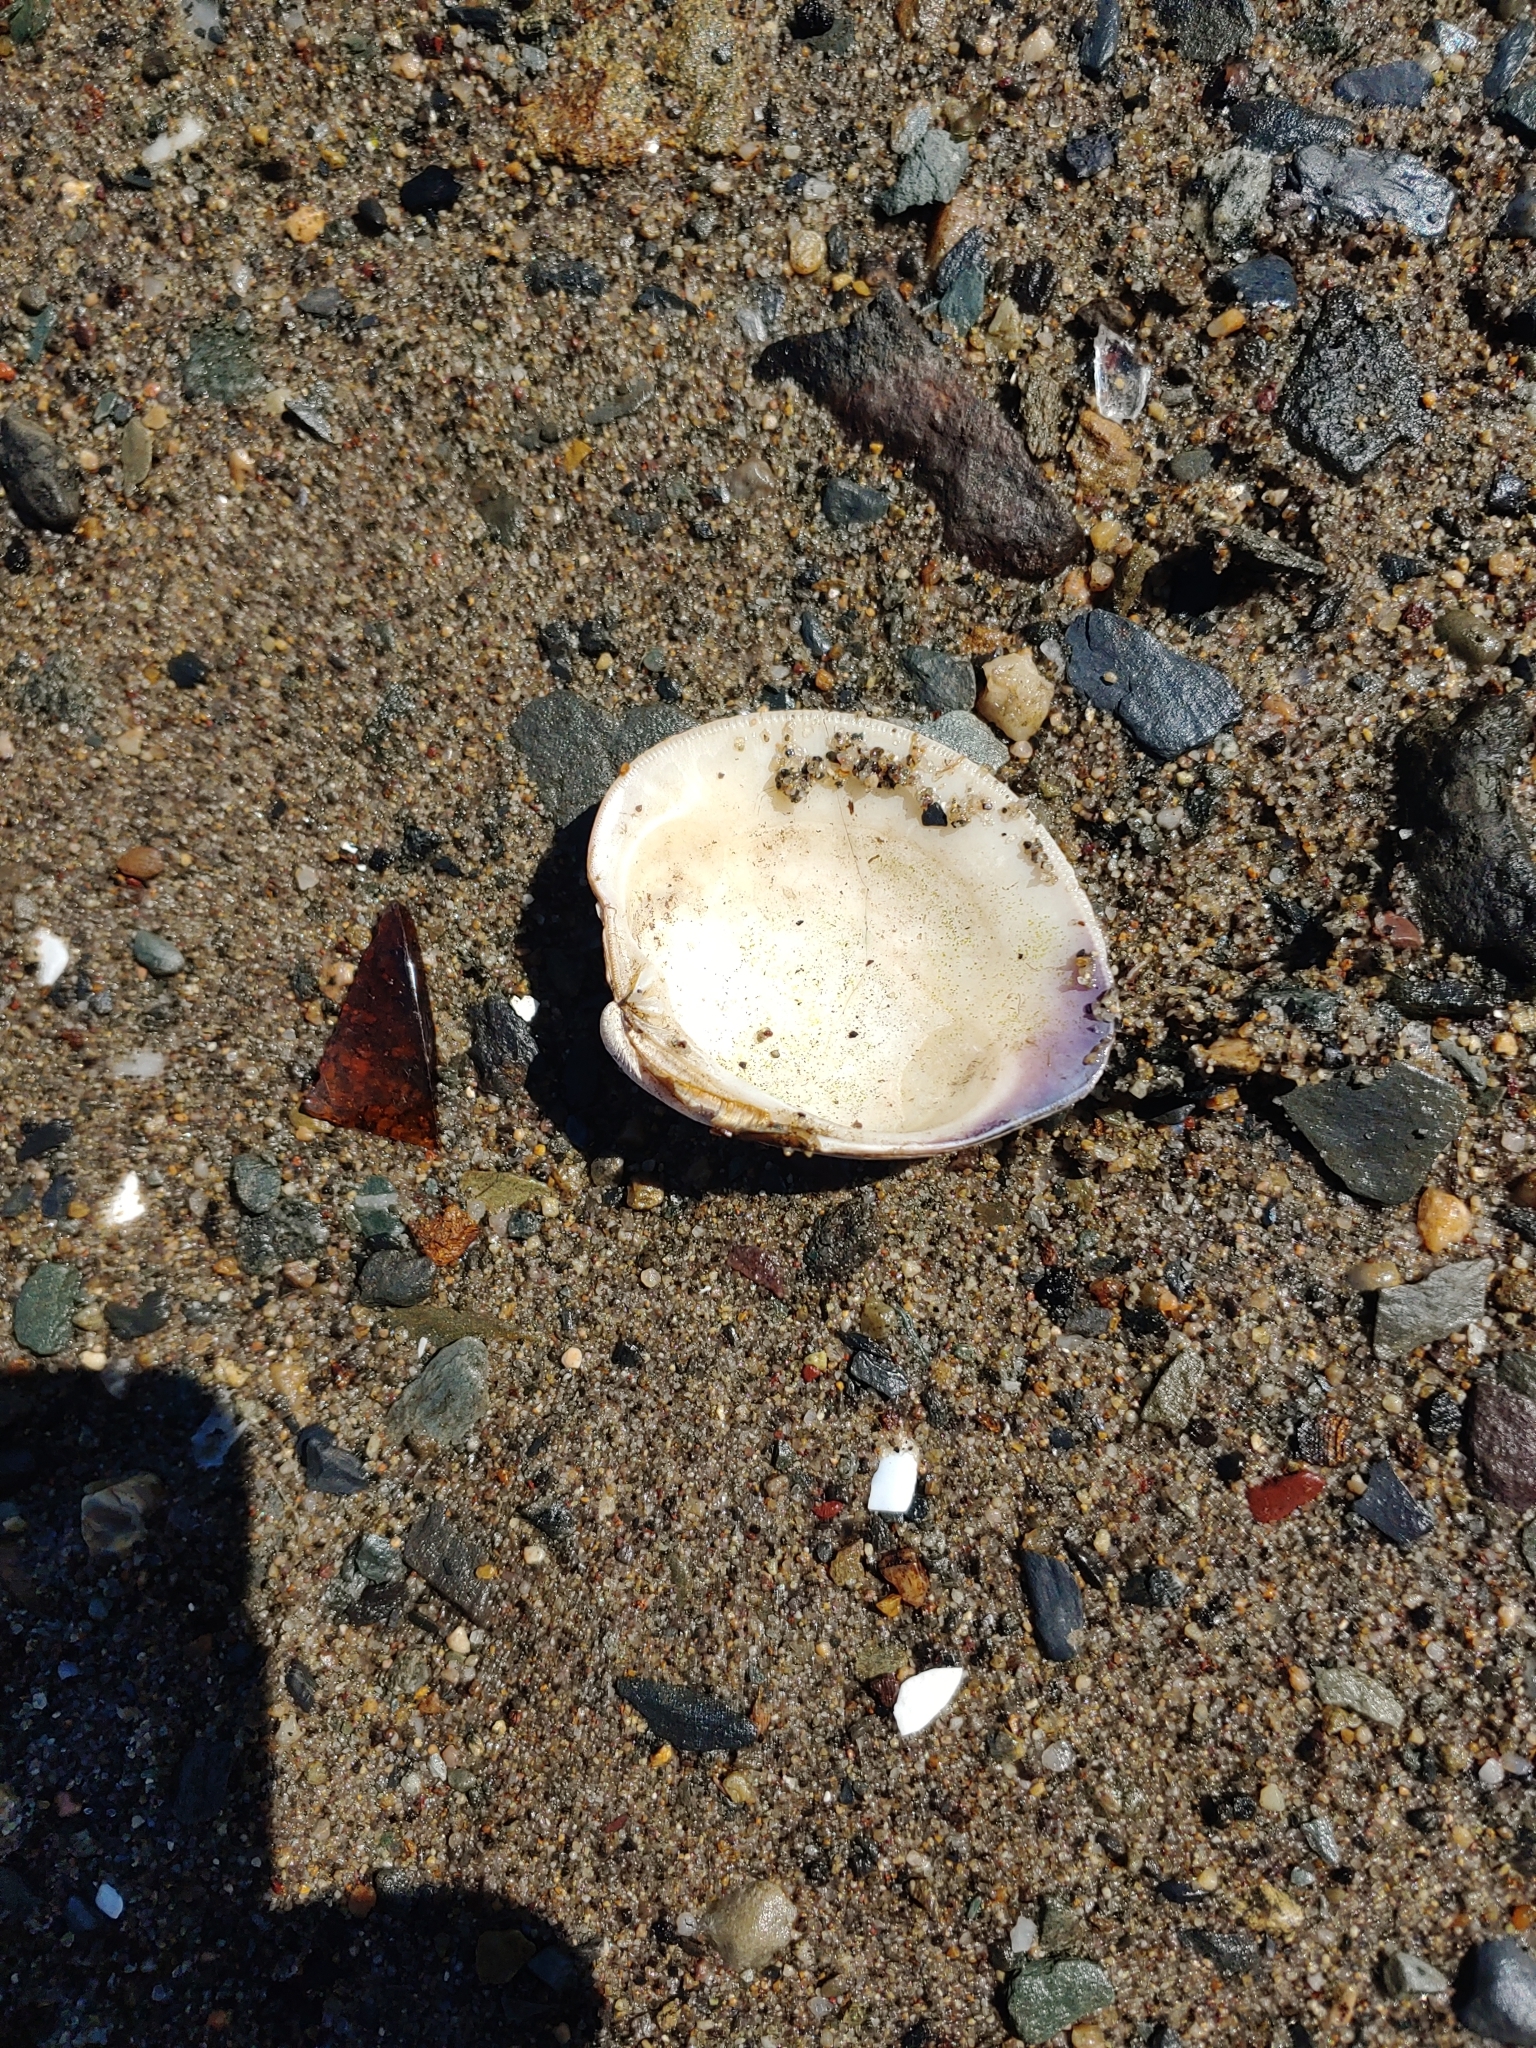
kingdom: Animalia
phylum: Mollusca
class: Bivalvia
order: Venerida
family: Veneridae
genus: Mercenaria
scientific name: Mercenaria mercenaria
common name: American hard-shelled clam
